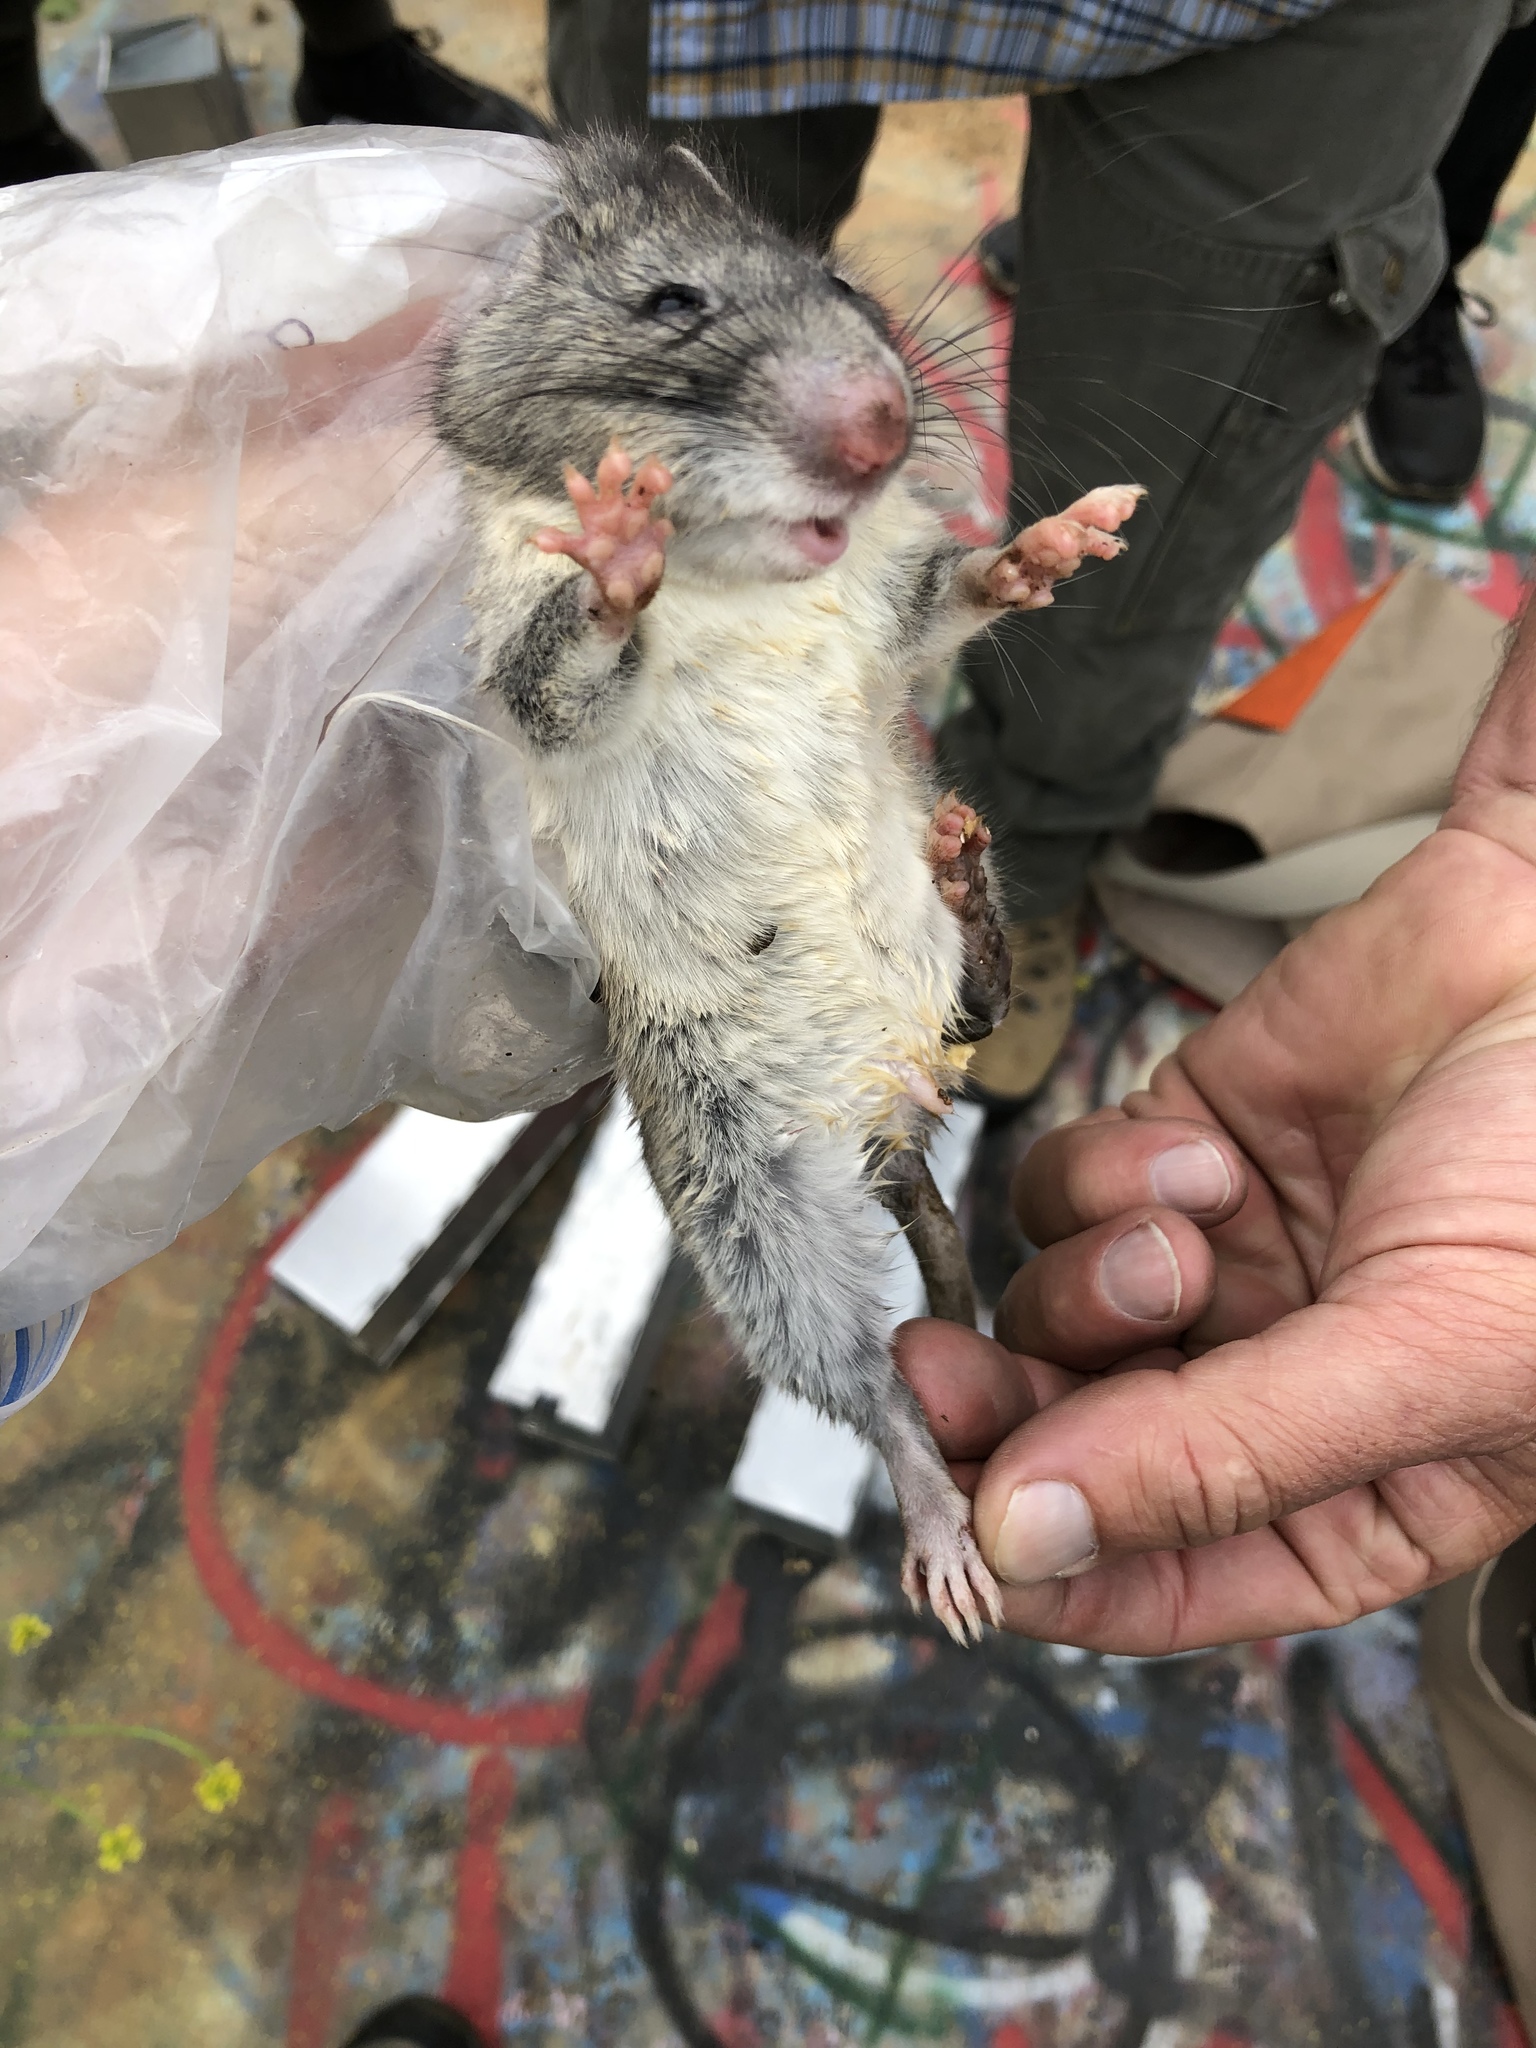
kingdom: Animalia
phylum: Chordata
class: Mammalia
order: Rodentia
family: Cricetidae
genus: Neotoma
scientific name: Neotoma macrotis
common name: Big-eared woodrat
